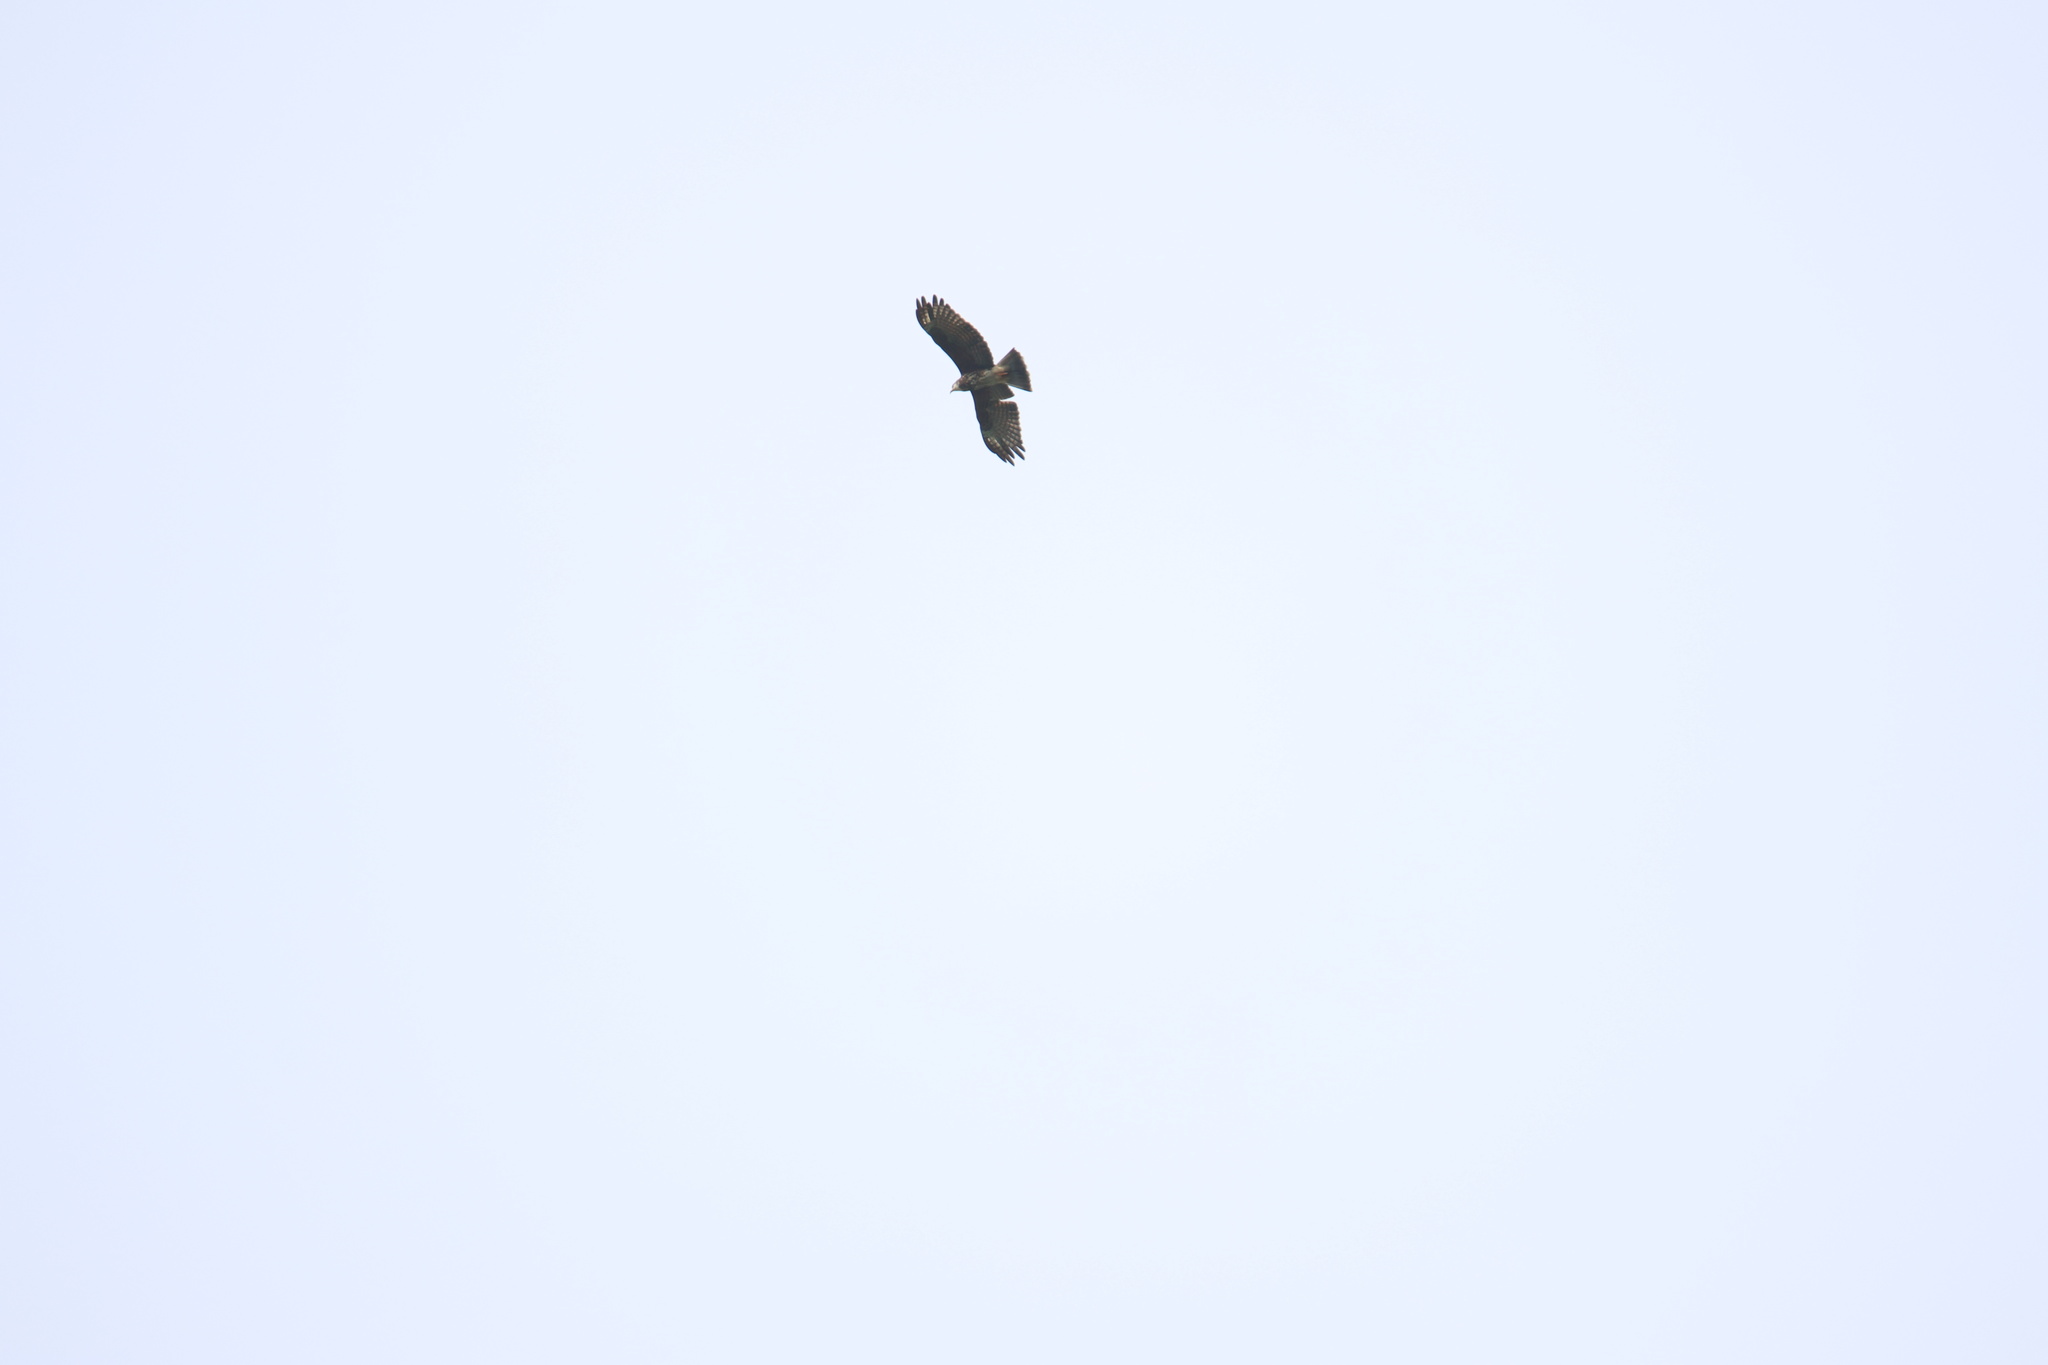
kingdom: Animalia
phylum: Chordata
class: Aves
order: Accipitriformes
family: Accipitridae
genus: Rostrhamus
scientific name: Rostrhamus sociabilis
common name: Snail kite
